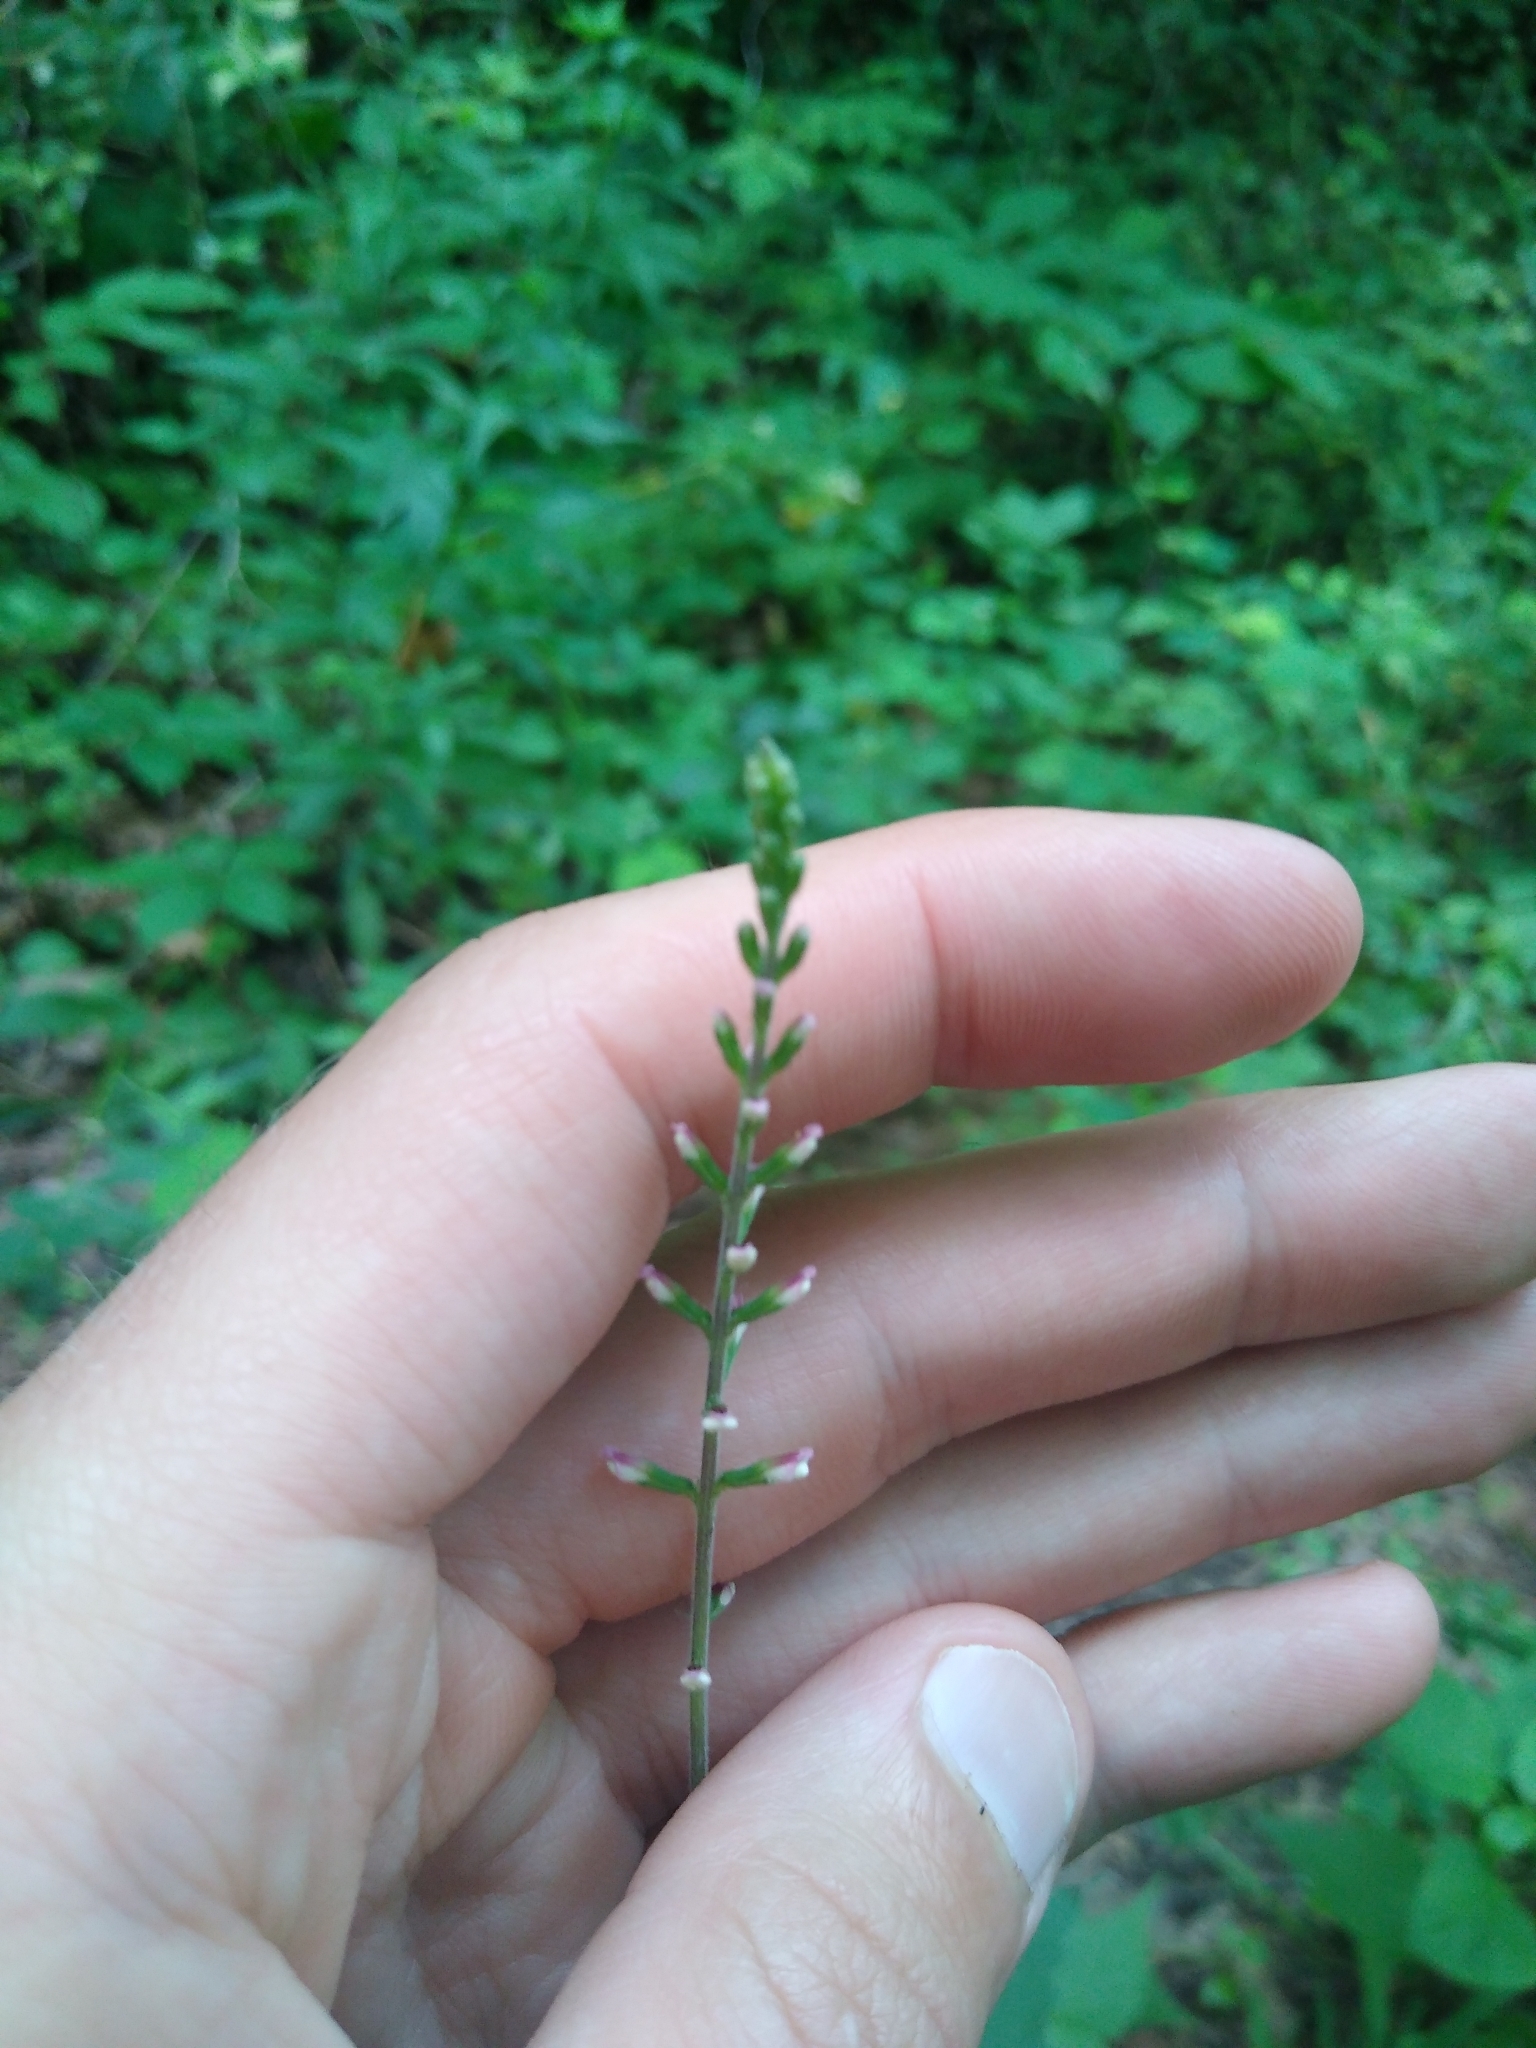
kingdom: Plantae
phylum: Tracheophyta
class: Magnoliopsida
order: Lamiales
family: Phrymaceae
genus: Phryma
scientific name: Phryma leptostachya
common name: American lopseed
